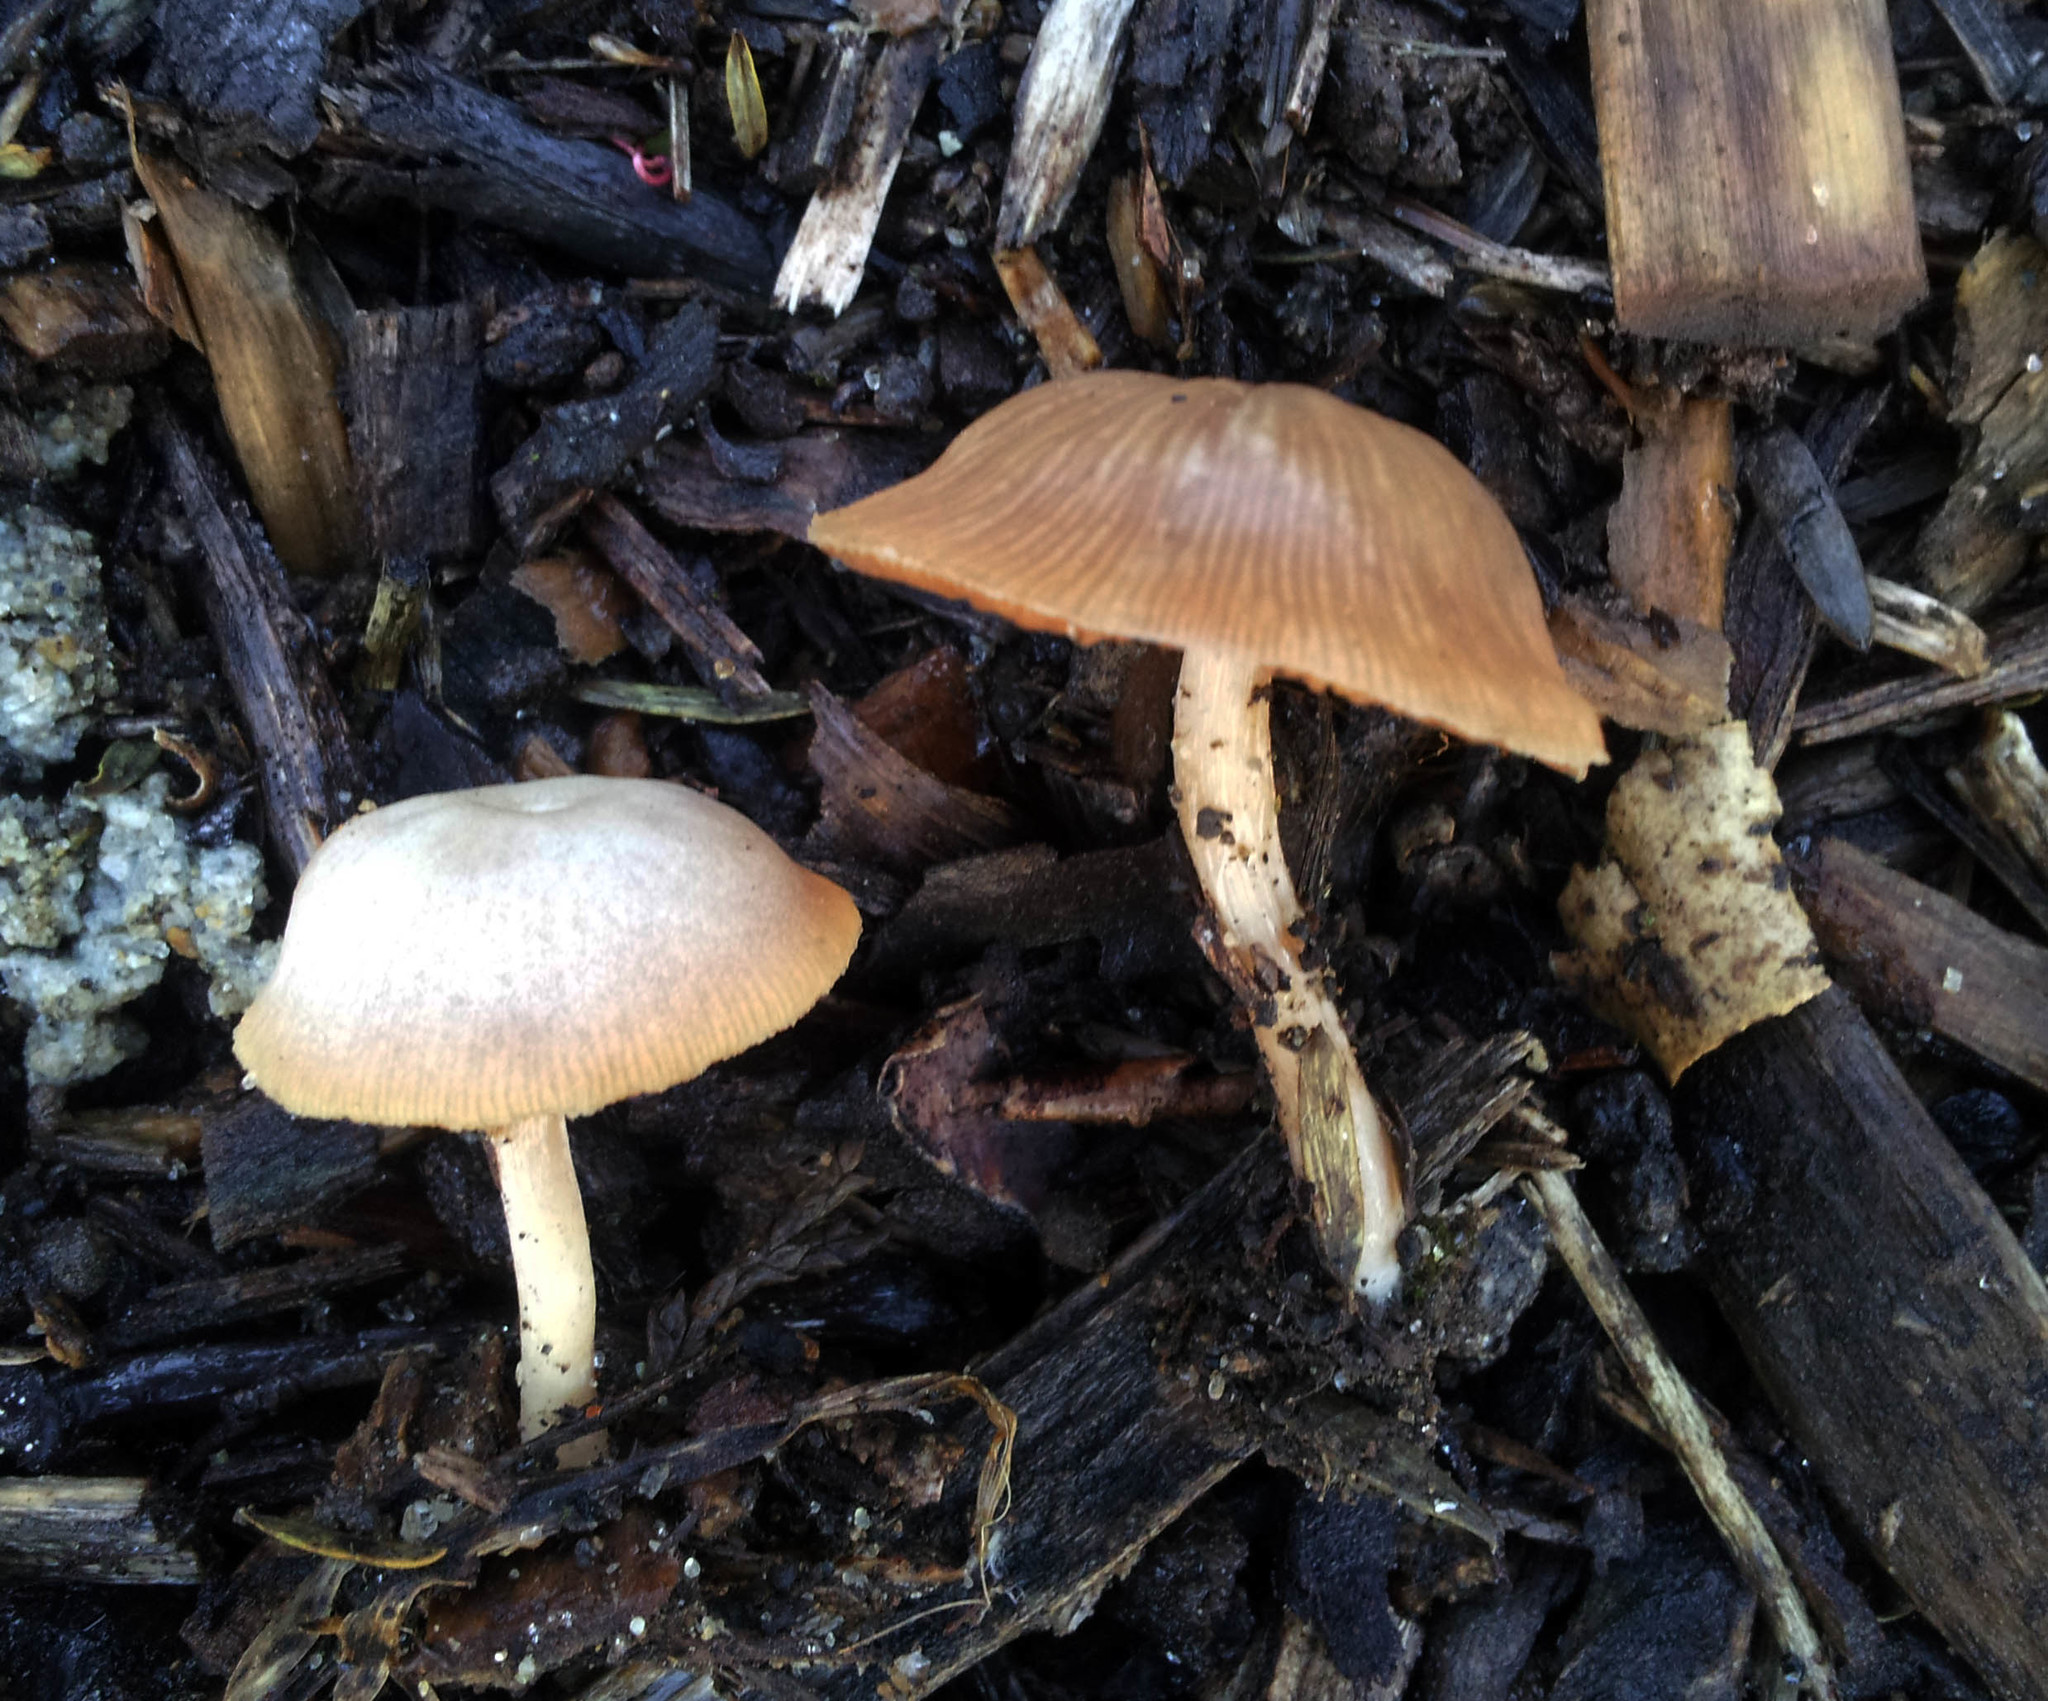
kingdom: Fungi
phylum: Basidiomycota
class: Agaricomycetes
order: Agaricales
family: Tubariaceae
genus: Tubaria
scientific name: Tubaria furfuracea
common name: Scurfy twiglet
